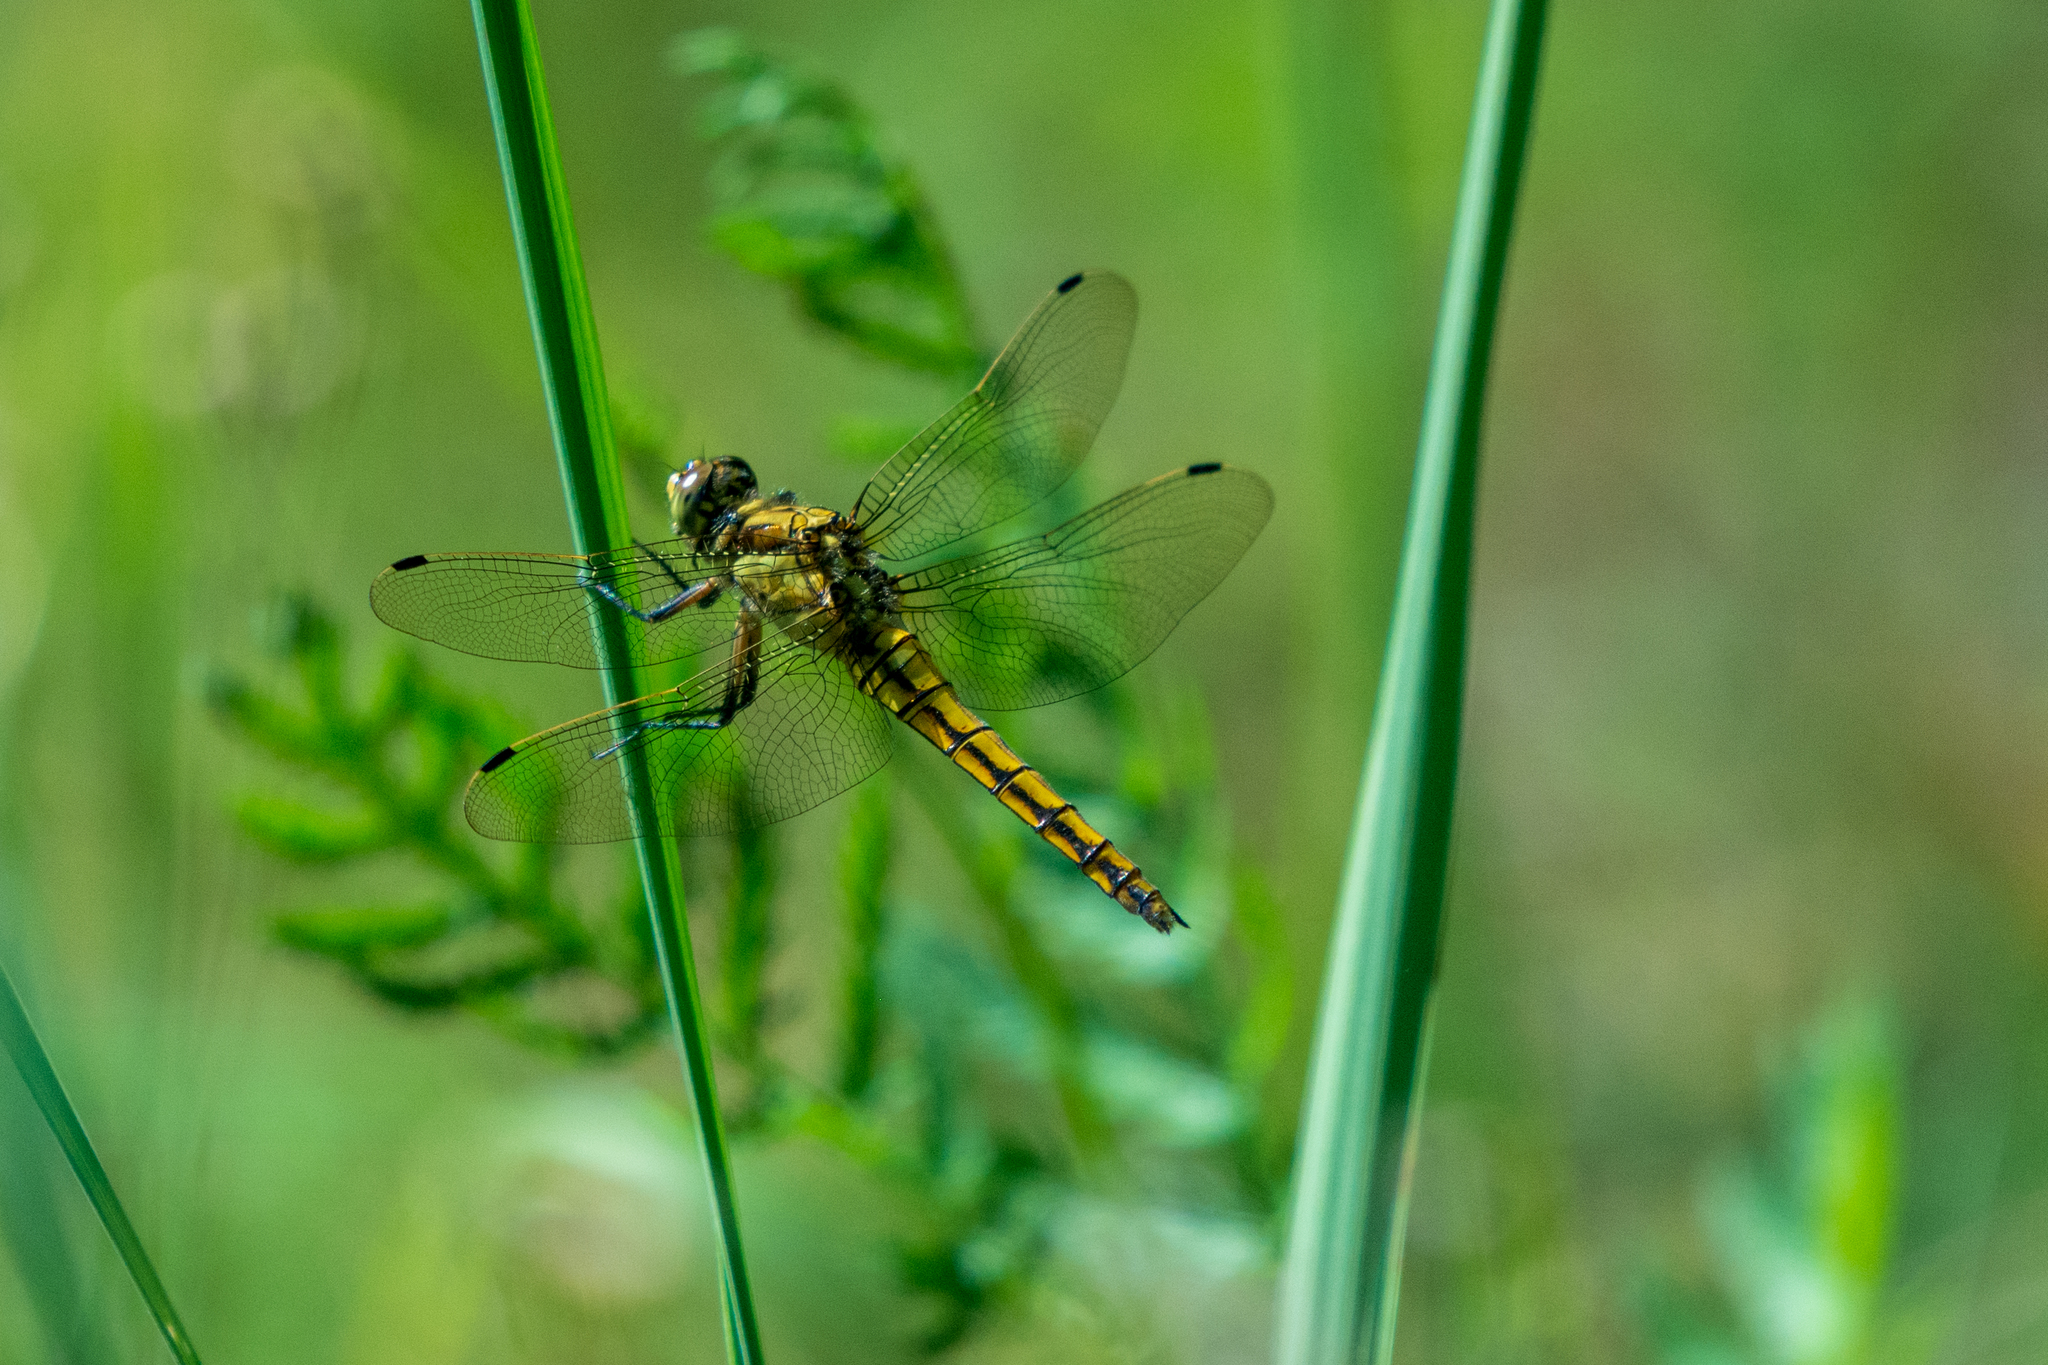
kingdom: Animalia
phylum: Arthropoda
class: Insecta
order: Odonata
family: Libellulidae
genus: Orthetrum
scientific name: Orthetrum cancellatum
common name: Black-tailed skimmer
